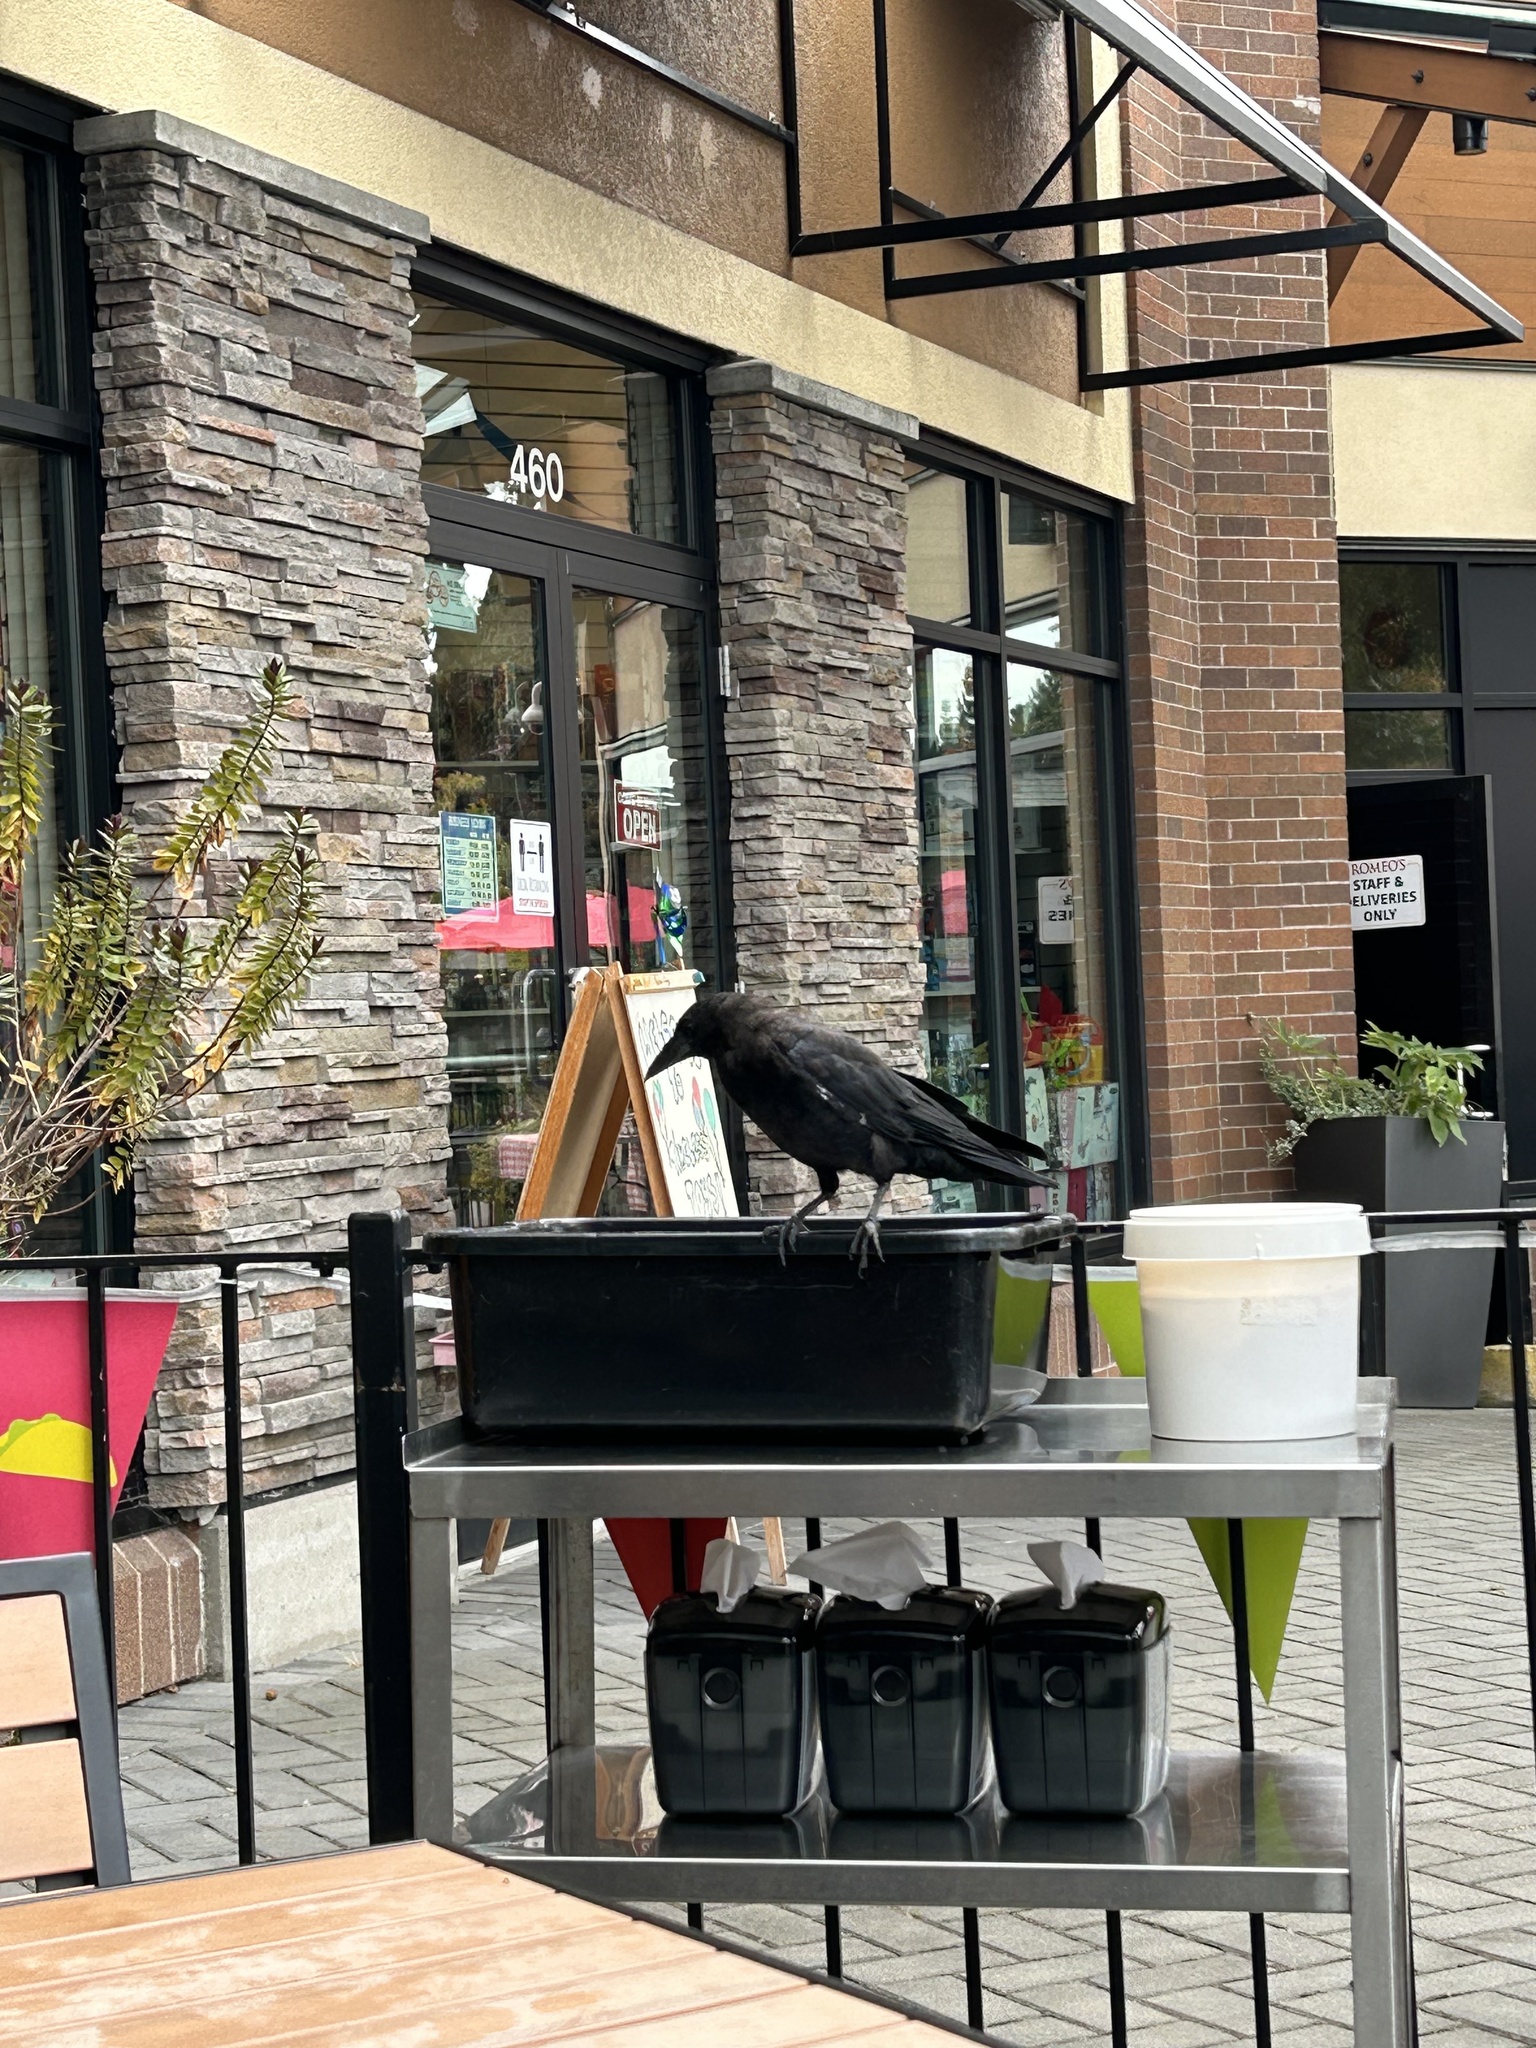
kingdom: Animalia
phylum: Chordata
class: Aves
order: Passeriformes
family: Corvidae
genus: Corvus
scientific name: Corvus brachyrhynchos
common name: American crow
